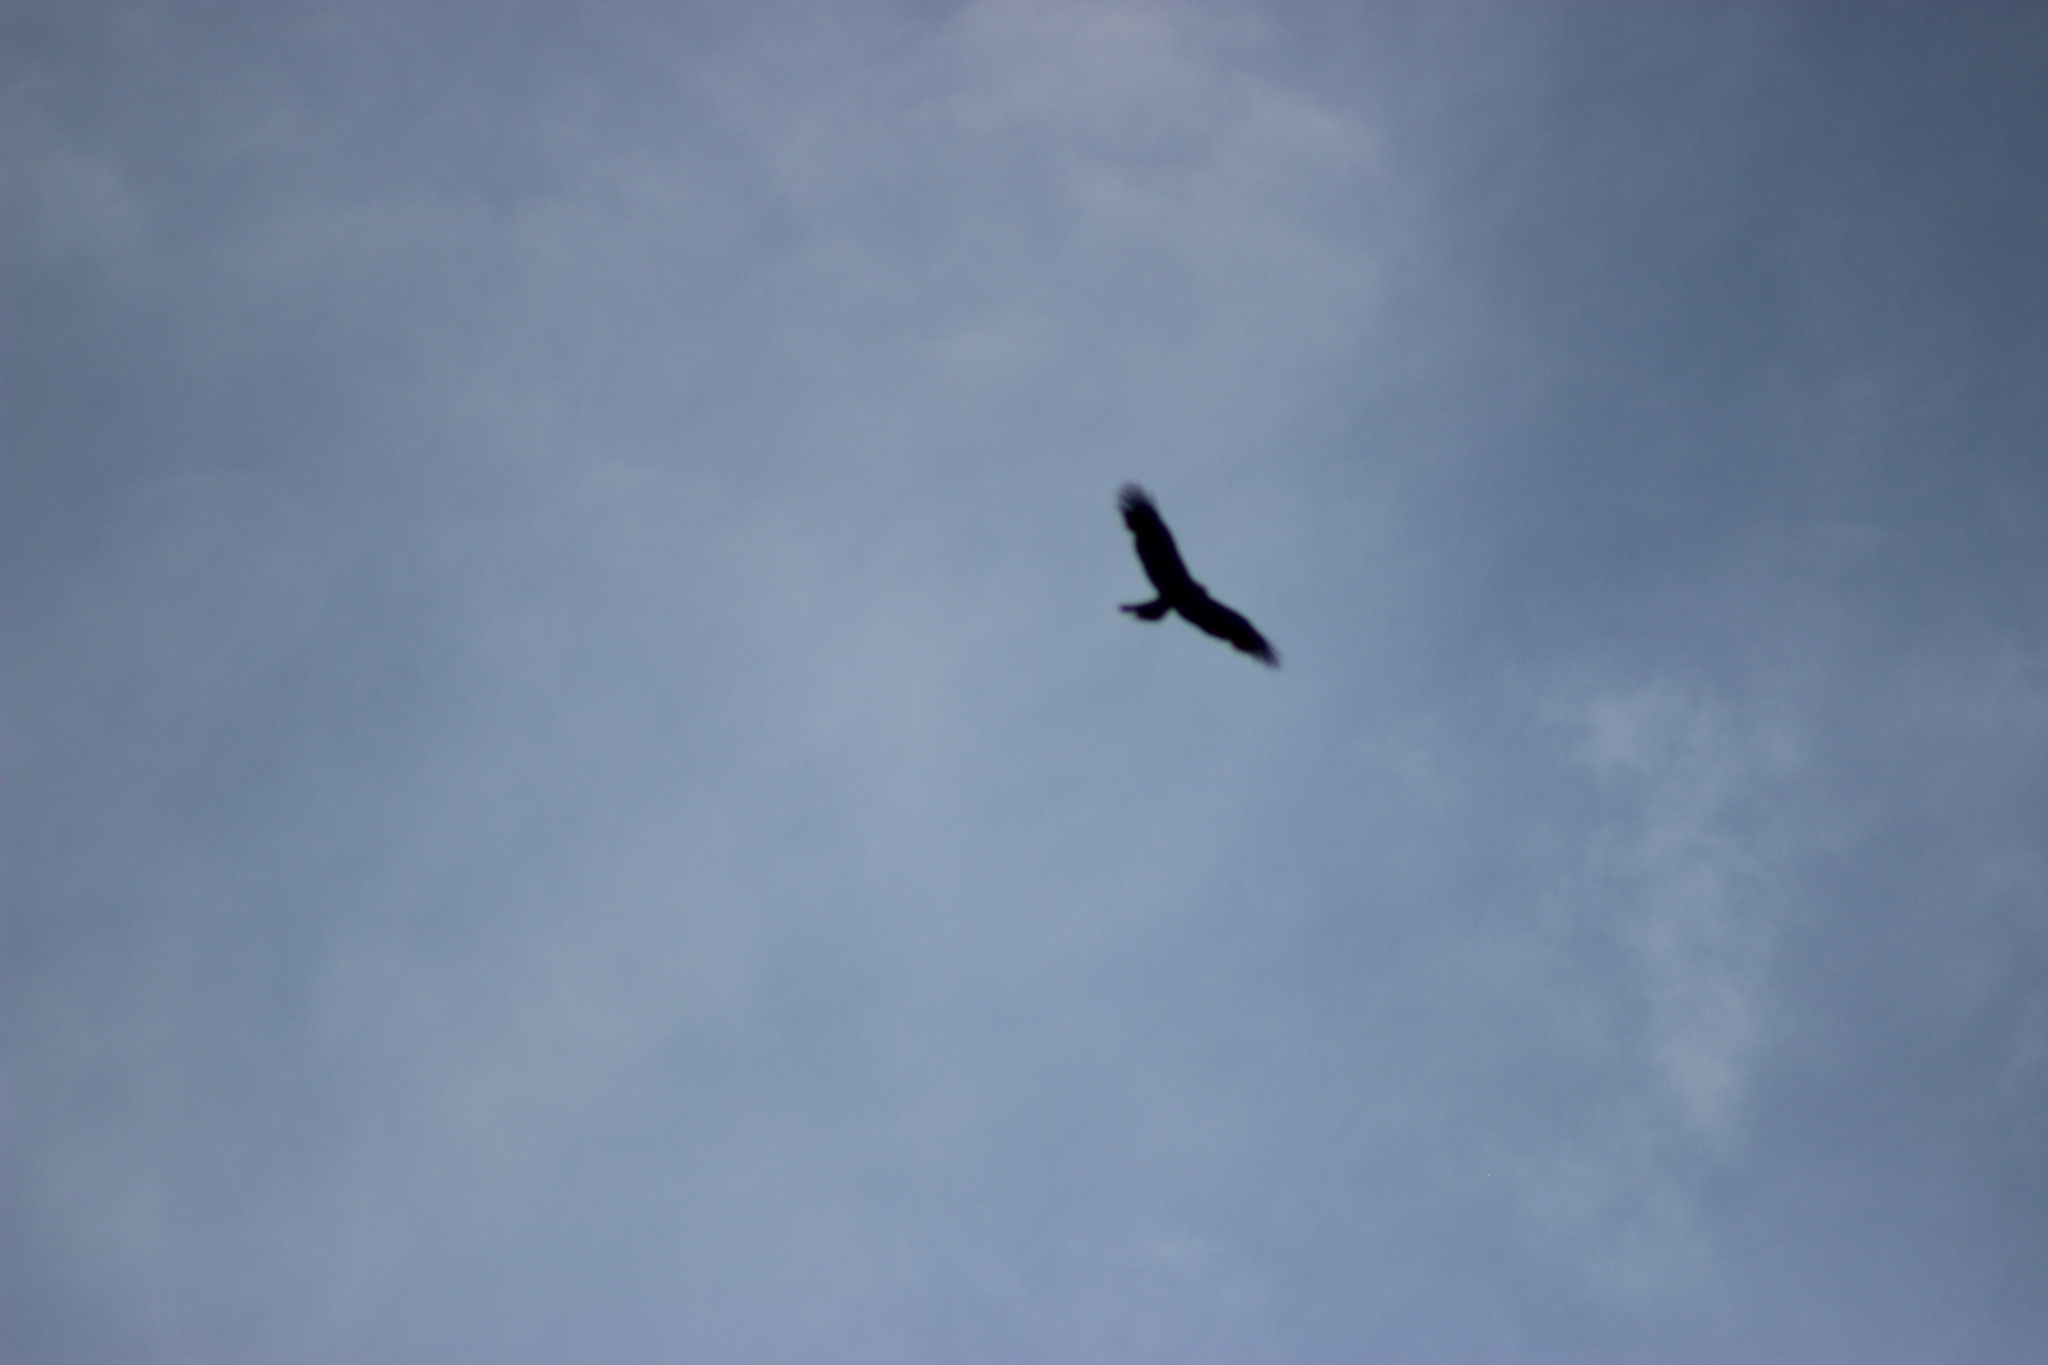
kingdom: Animalia
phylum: Chordata
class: Aves
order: Accipitriformes
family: Accipitridae
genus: Milvus
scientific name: Milvus migrans
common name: Black kite
